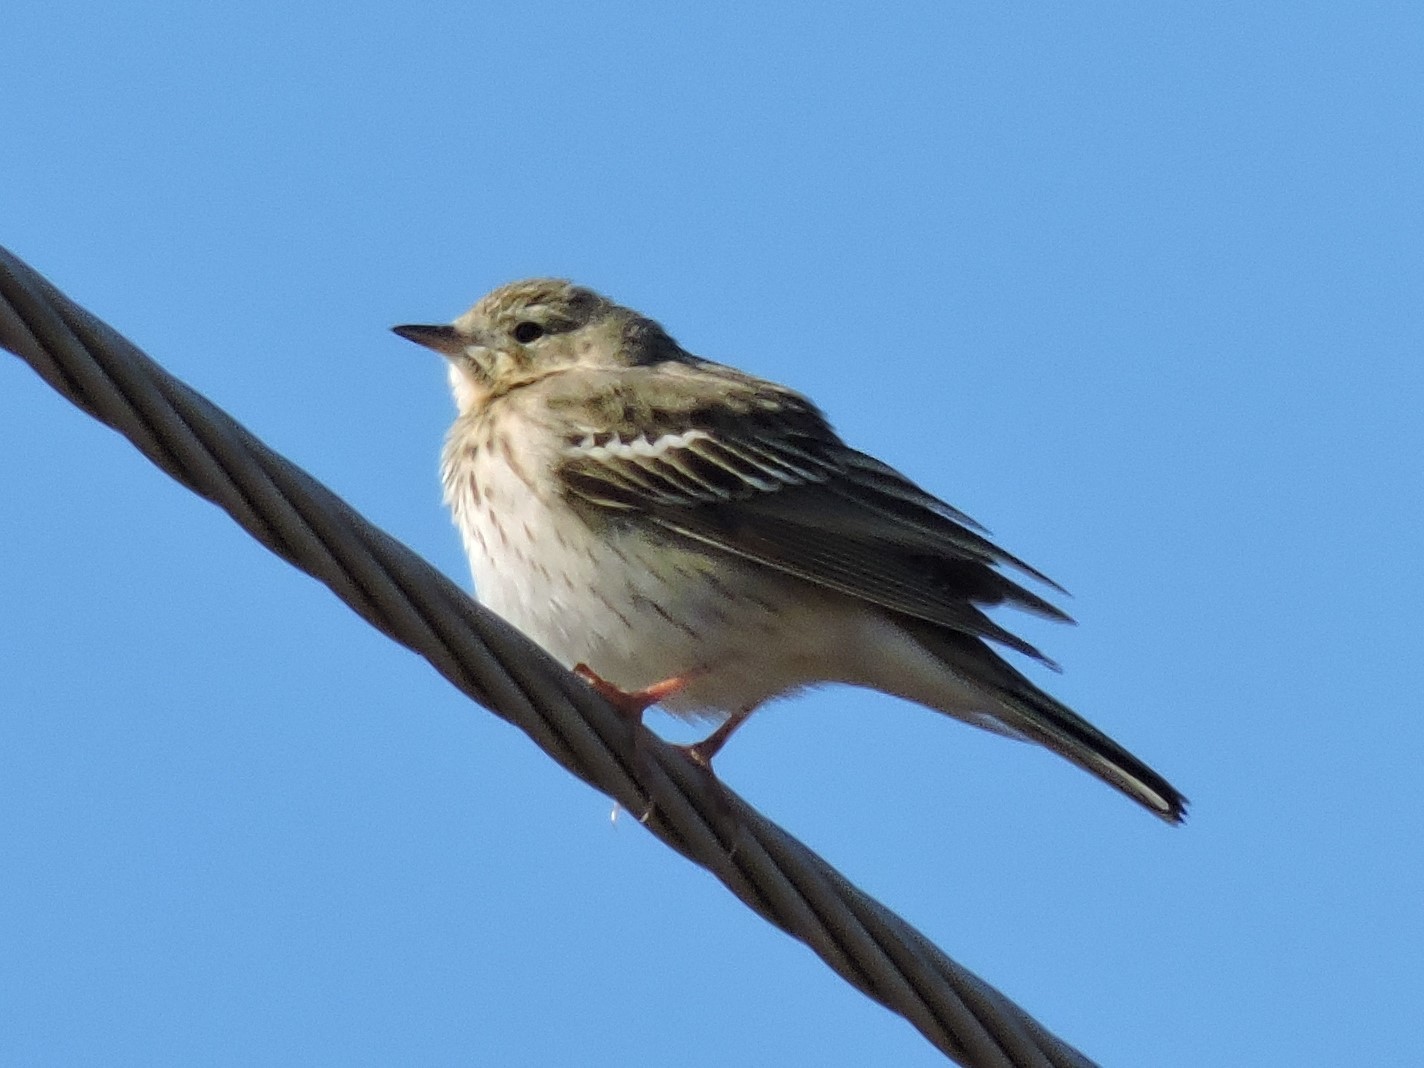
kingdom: Animalia
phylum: Chordata
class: Aves
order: Passeriformes
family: Motacillidae
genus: Anthus
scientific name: Anthus trivialis
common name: Tree pipit
